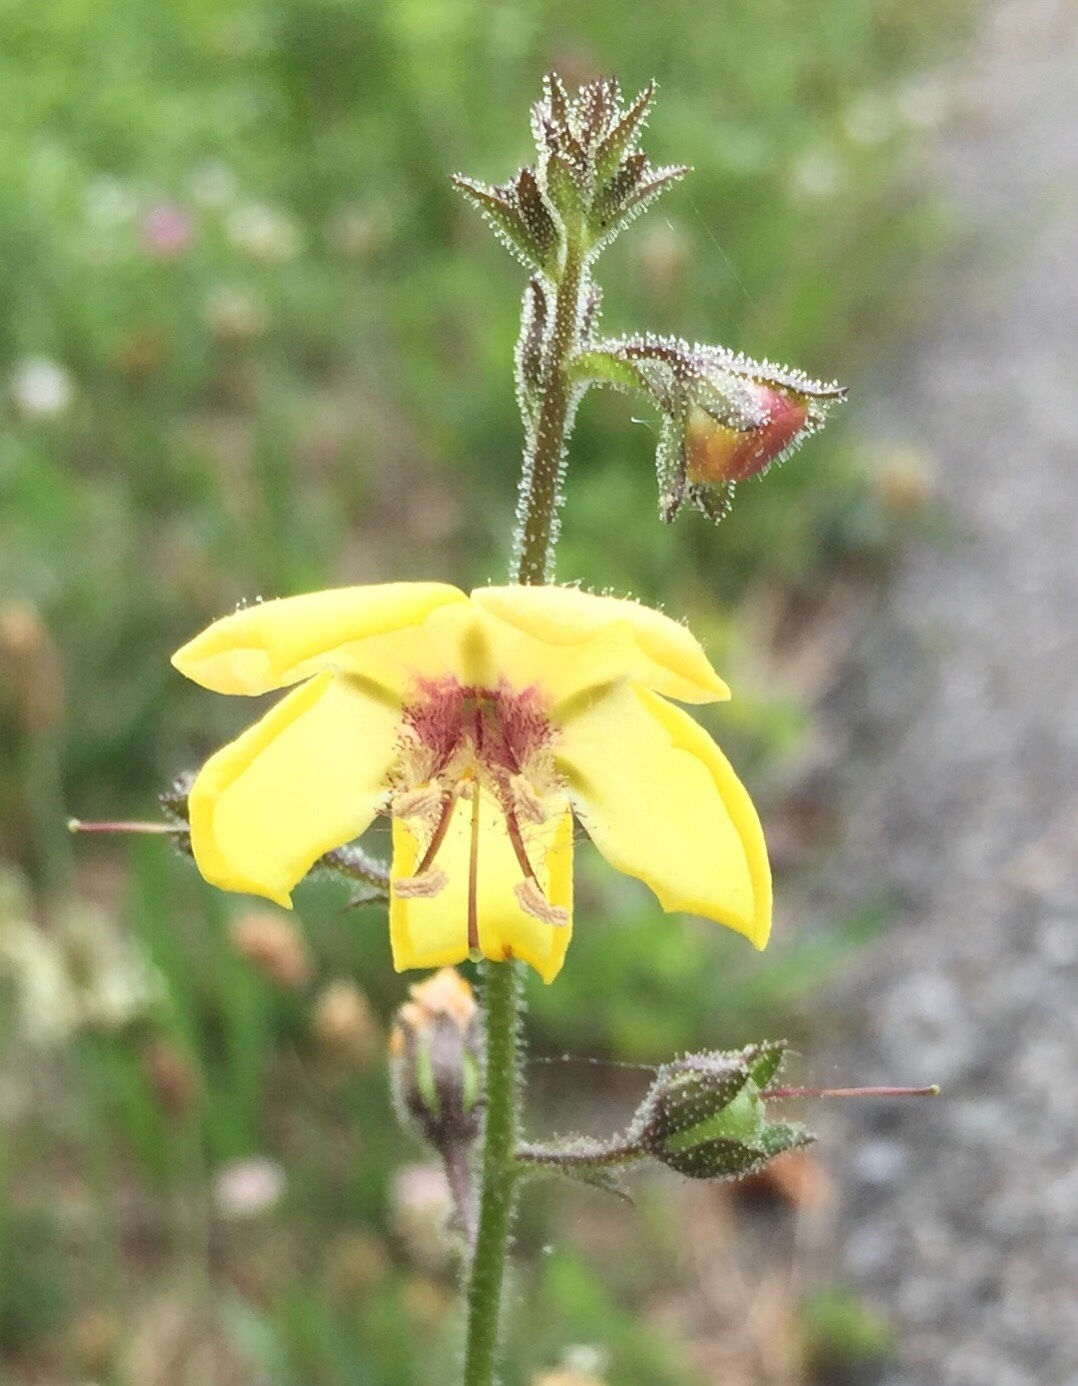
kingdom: Plantae
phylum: Tracheophyta
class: Magnoliopsida
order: Lamiales
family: Scrophulariaceae
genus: Verbascum
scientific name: Verbascum blattaria
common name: Moth mullein
